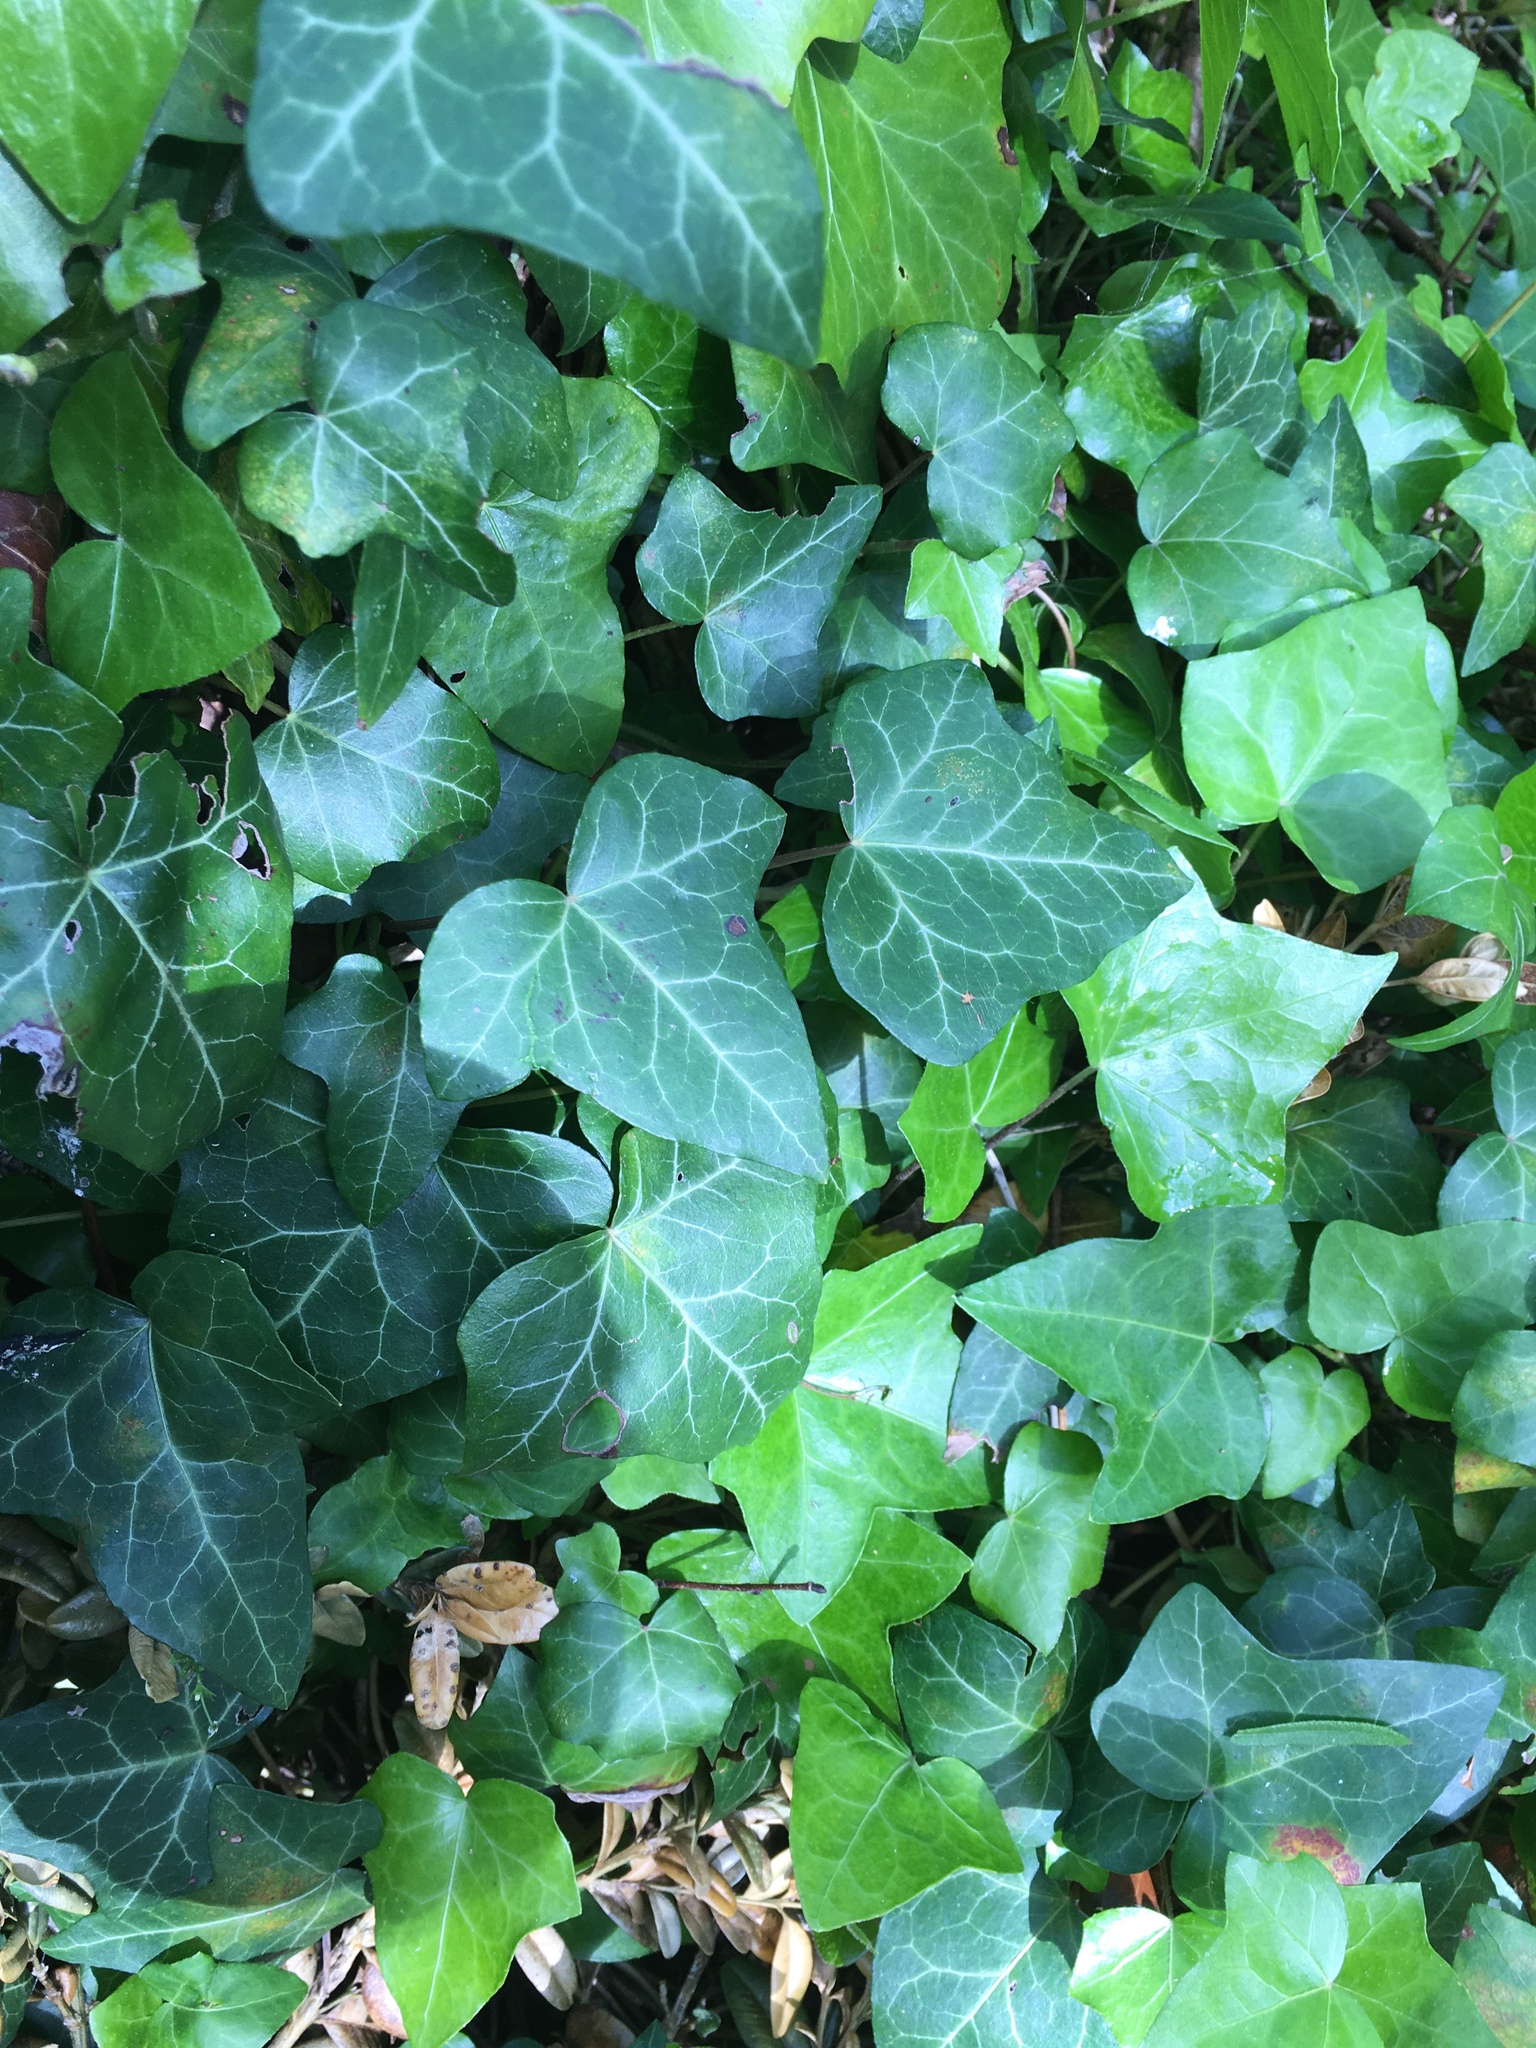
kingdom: Plantae
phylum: Tracheophyta
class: Magnoliopsida
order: Apiales
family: Araliaceae
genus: Hedera
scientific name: Hedera helix
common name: Ivy
